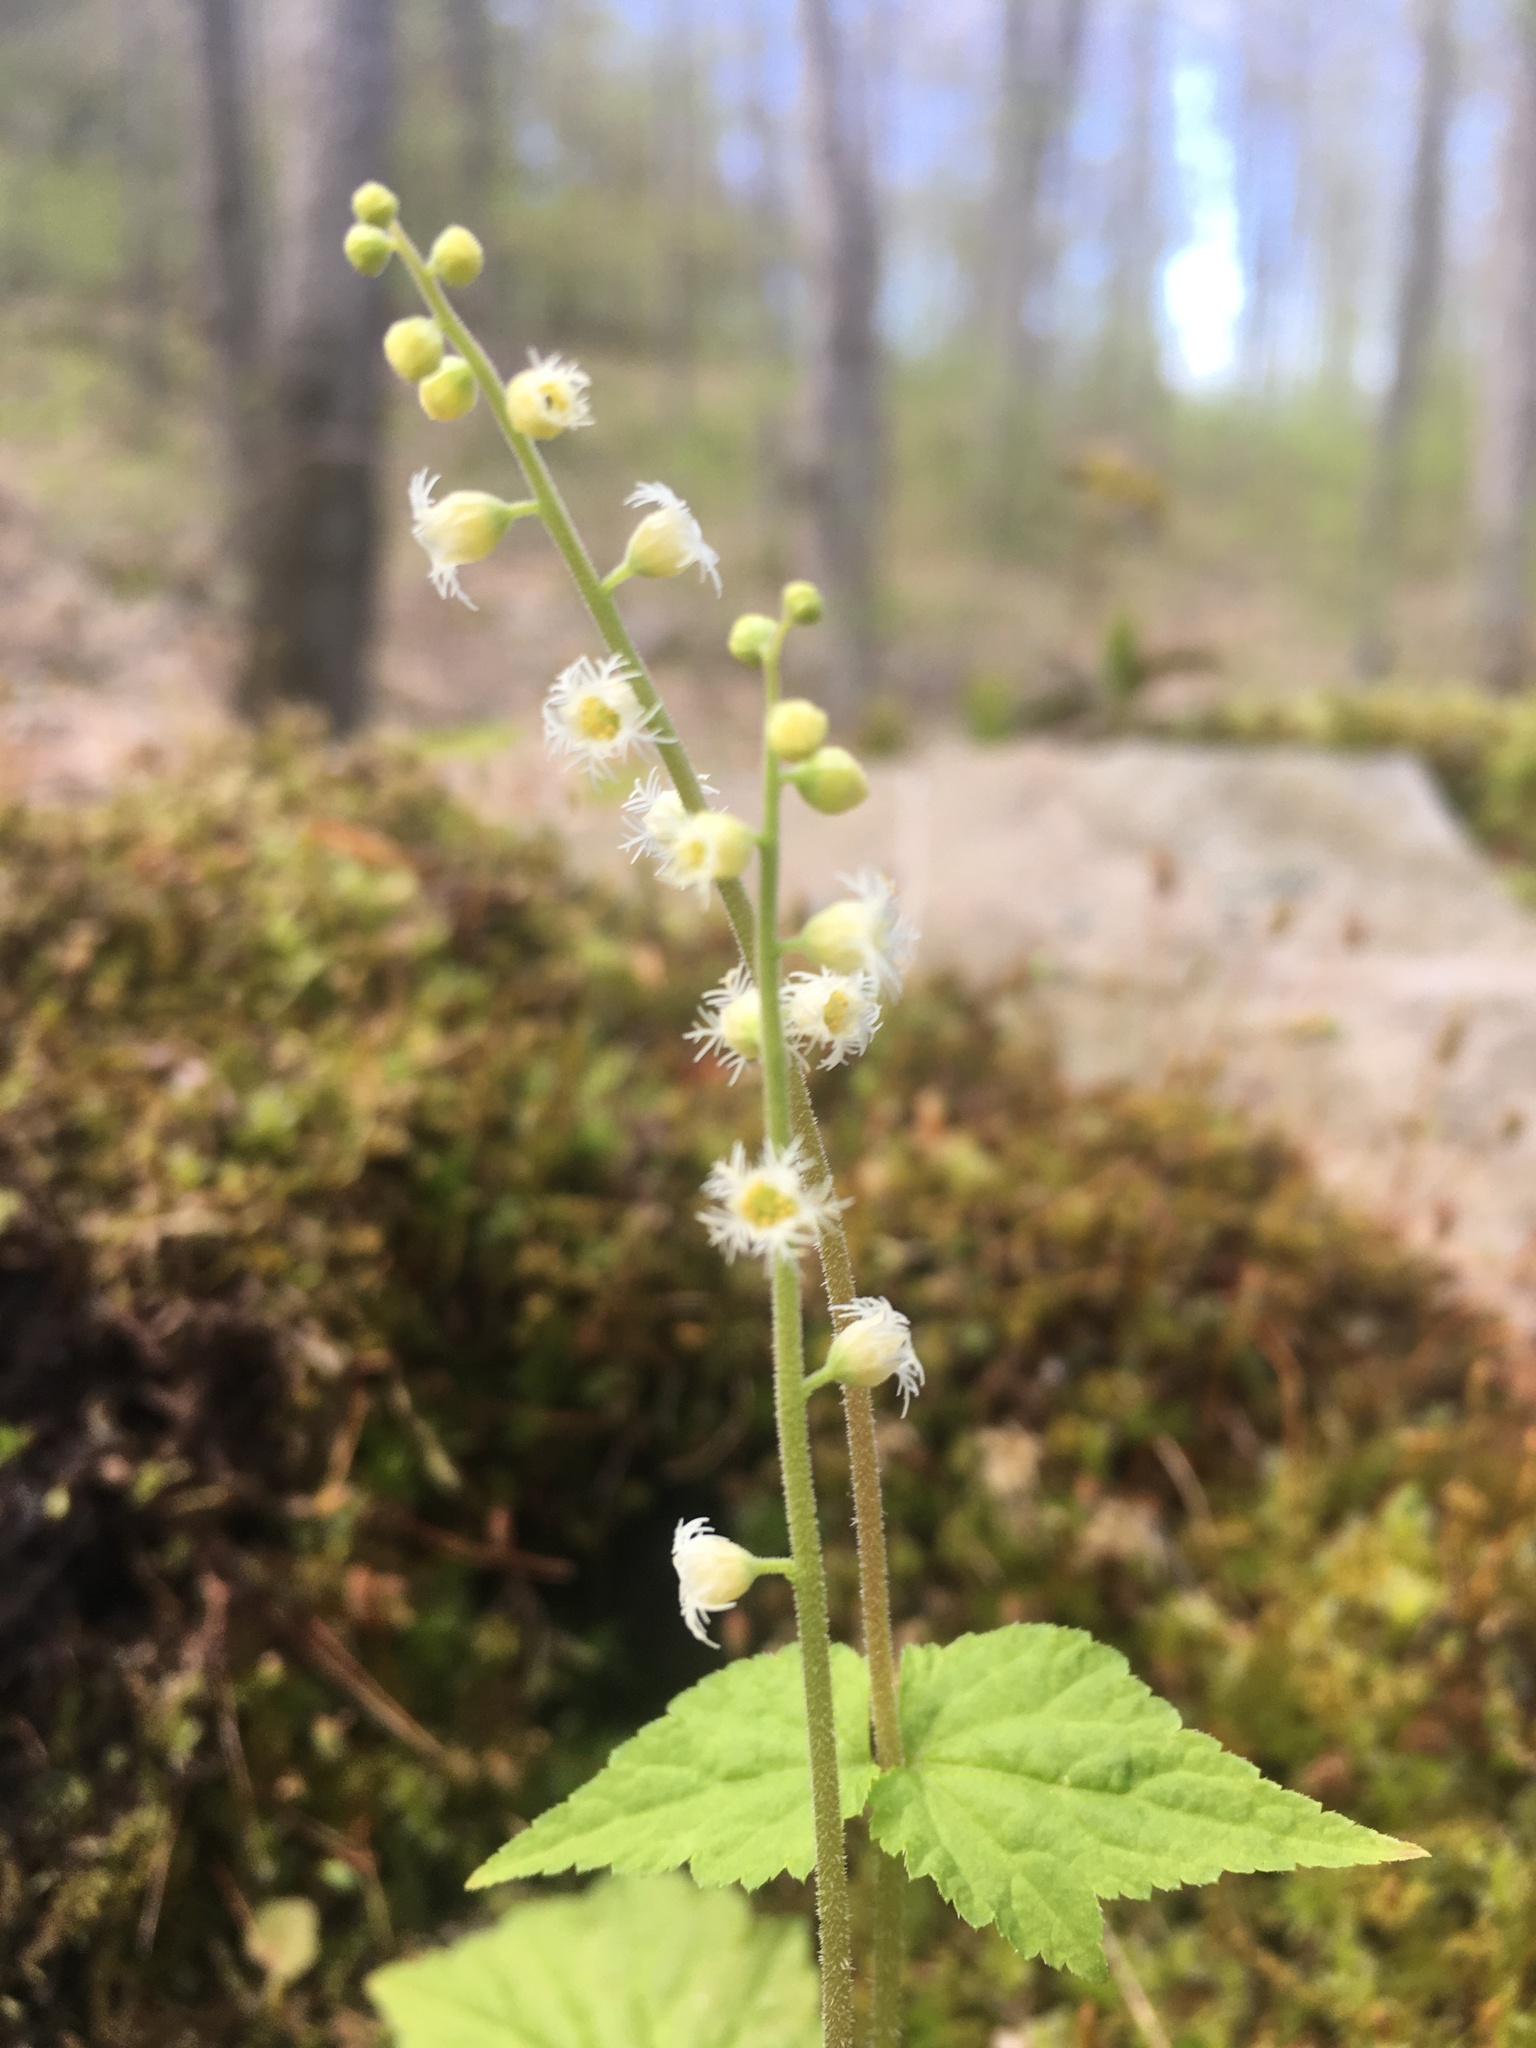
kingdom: Plantae
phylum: Tracheophyta
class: Magnoliopsida
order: Saxifragales
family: Saxifragaceae
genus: Mitella
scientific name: Mitella diphylla
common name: Coolwort
